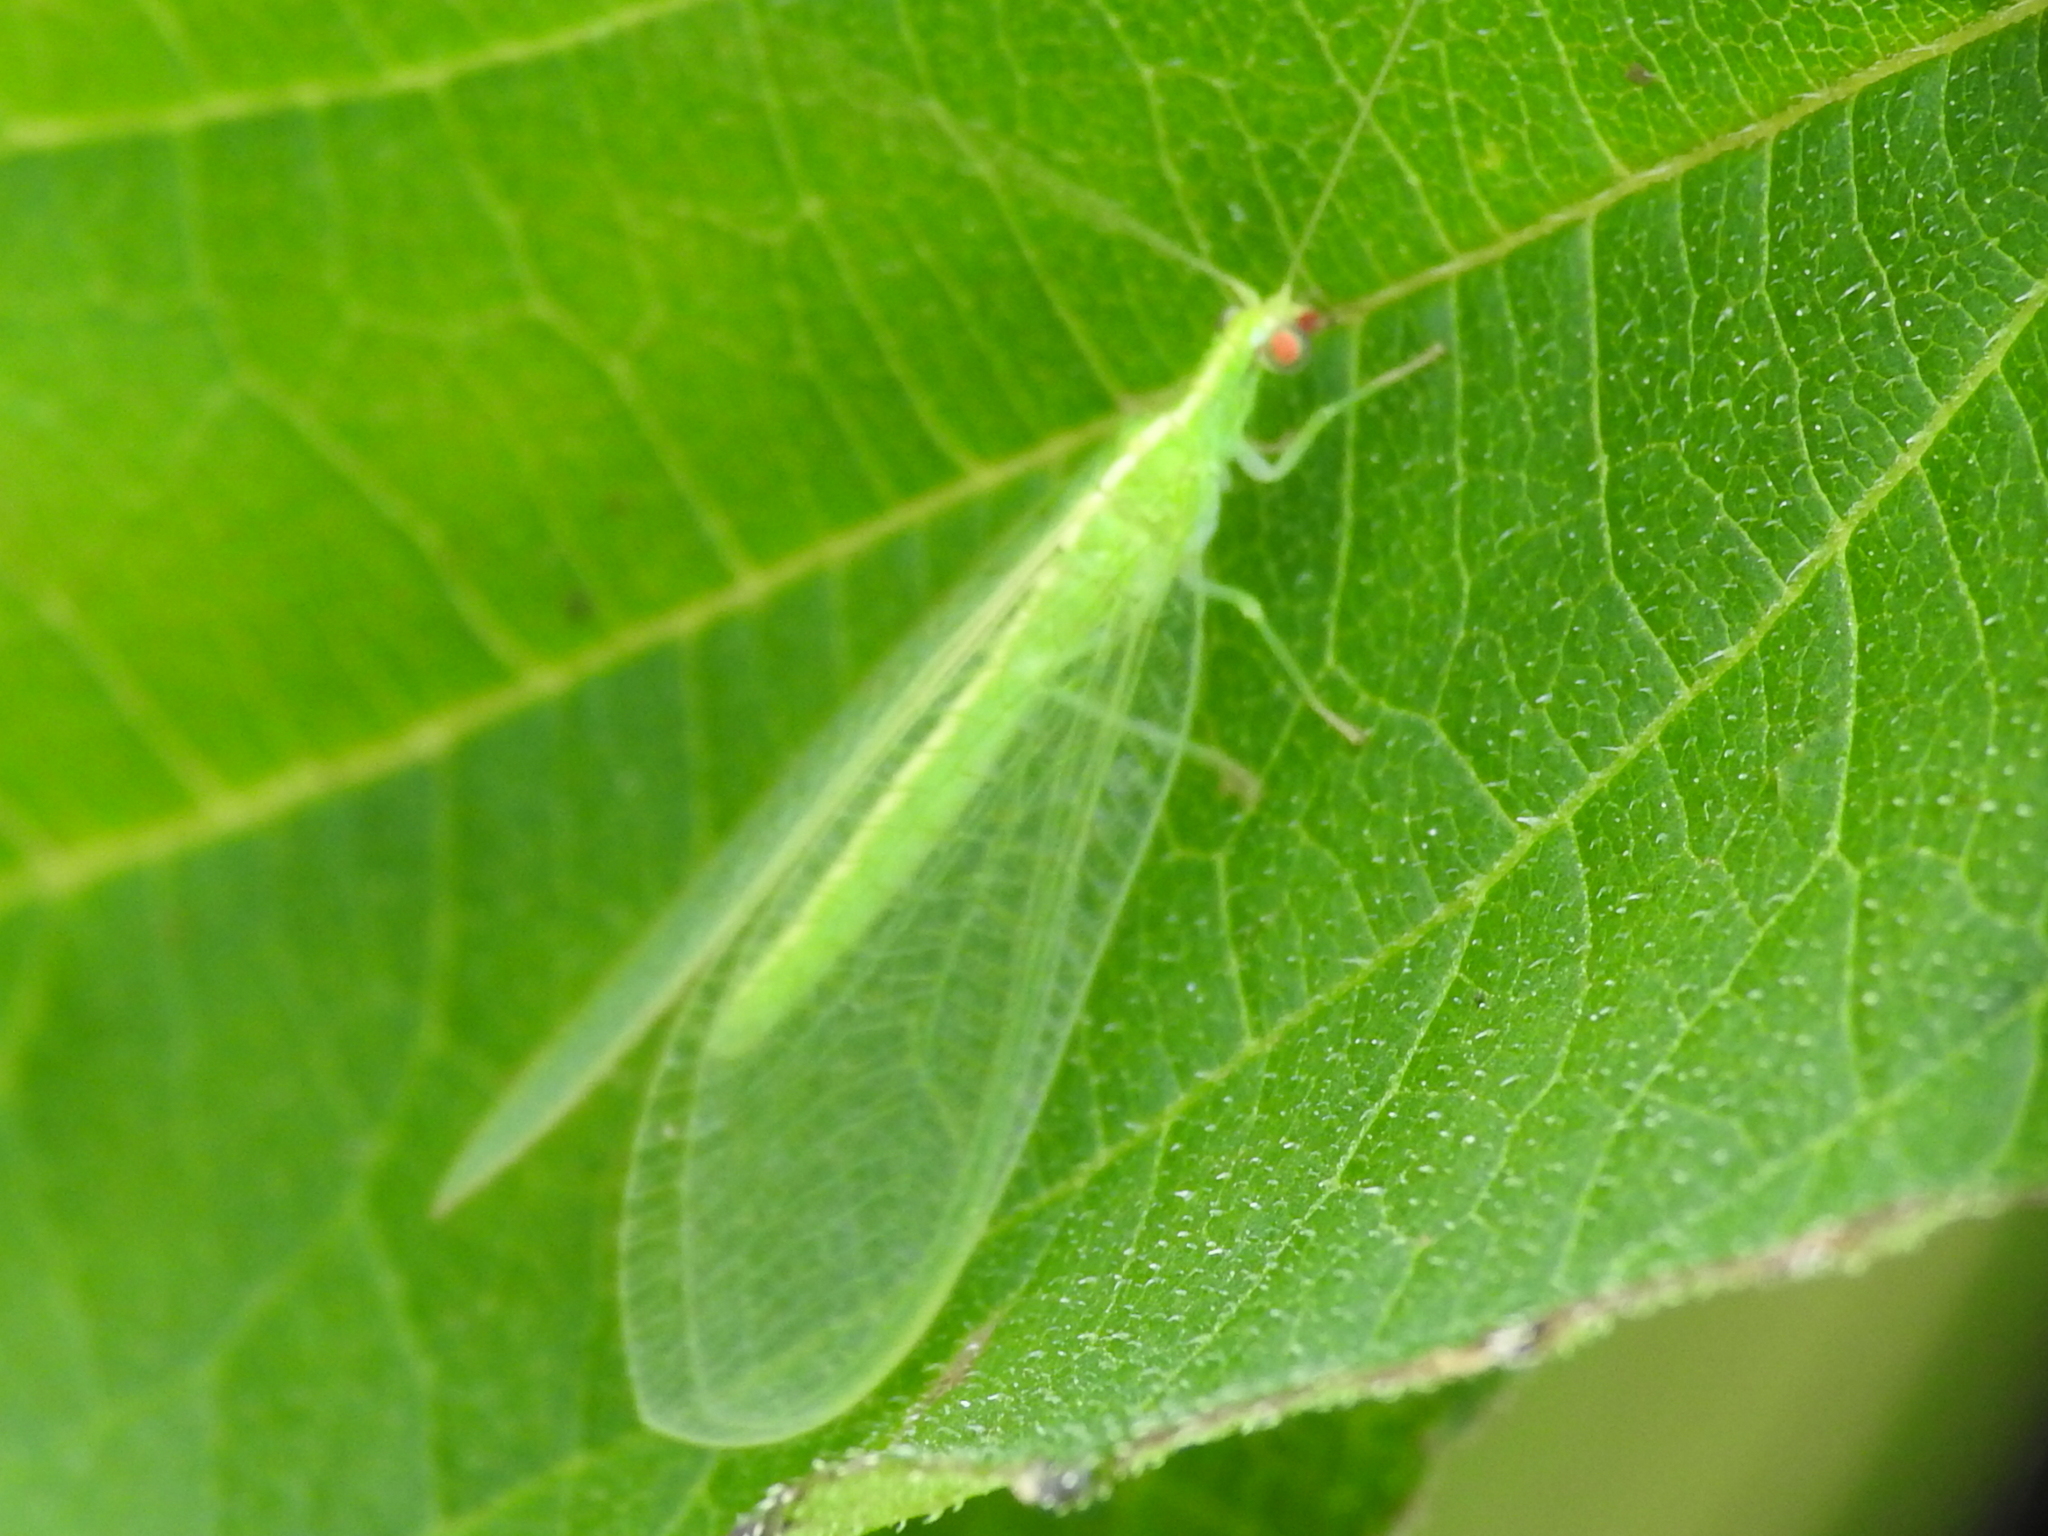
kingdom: Animalia
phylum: Arthropoda
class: Insecta
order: Neuroptera
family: Chrysopidae
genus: Chrysoperla
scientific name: Chrysoperla rufilabris
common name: Red-lipped green lacewing
